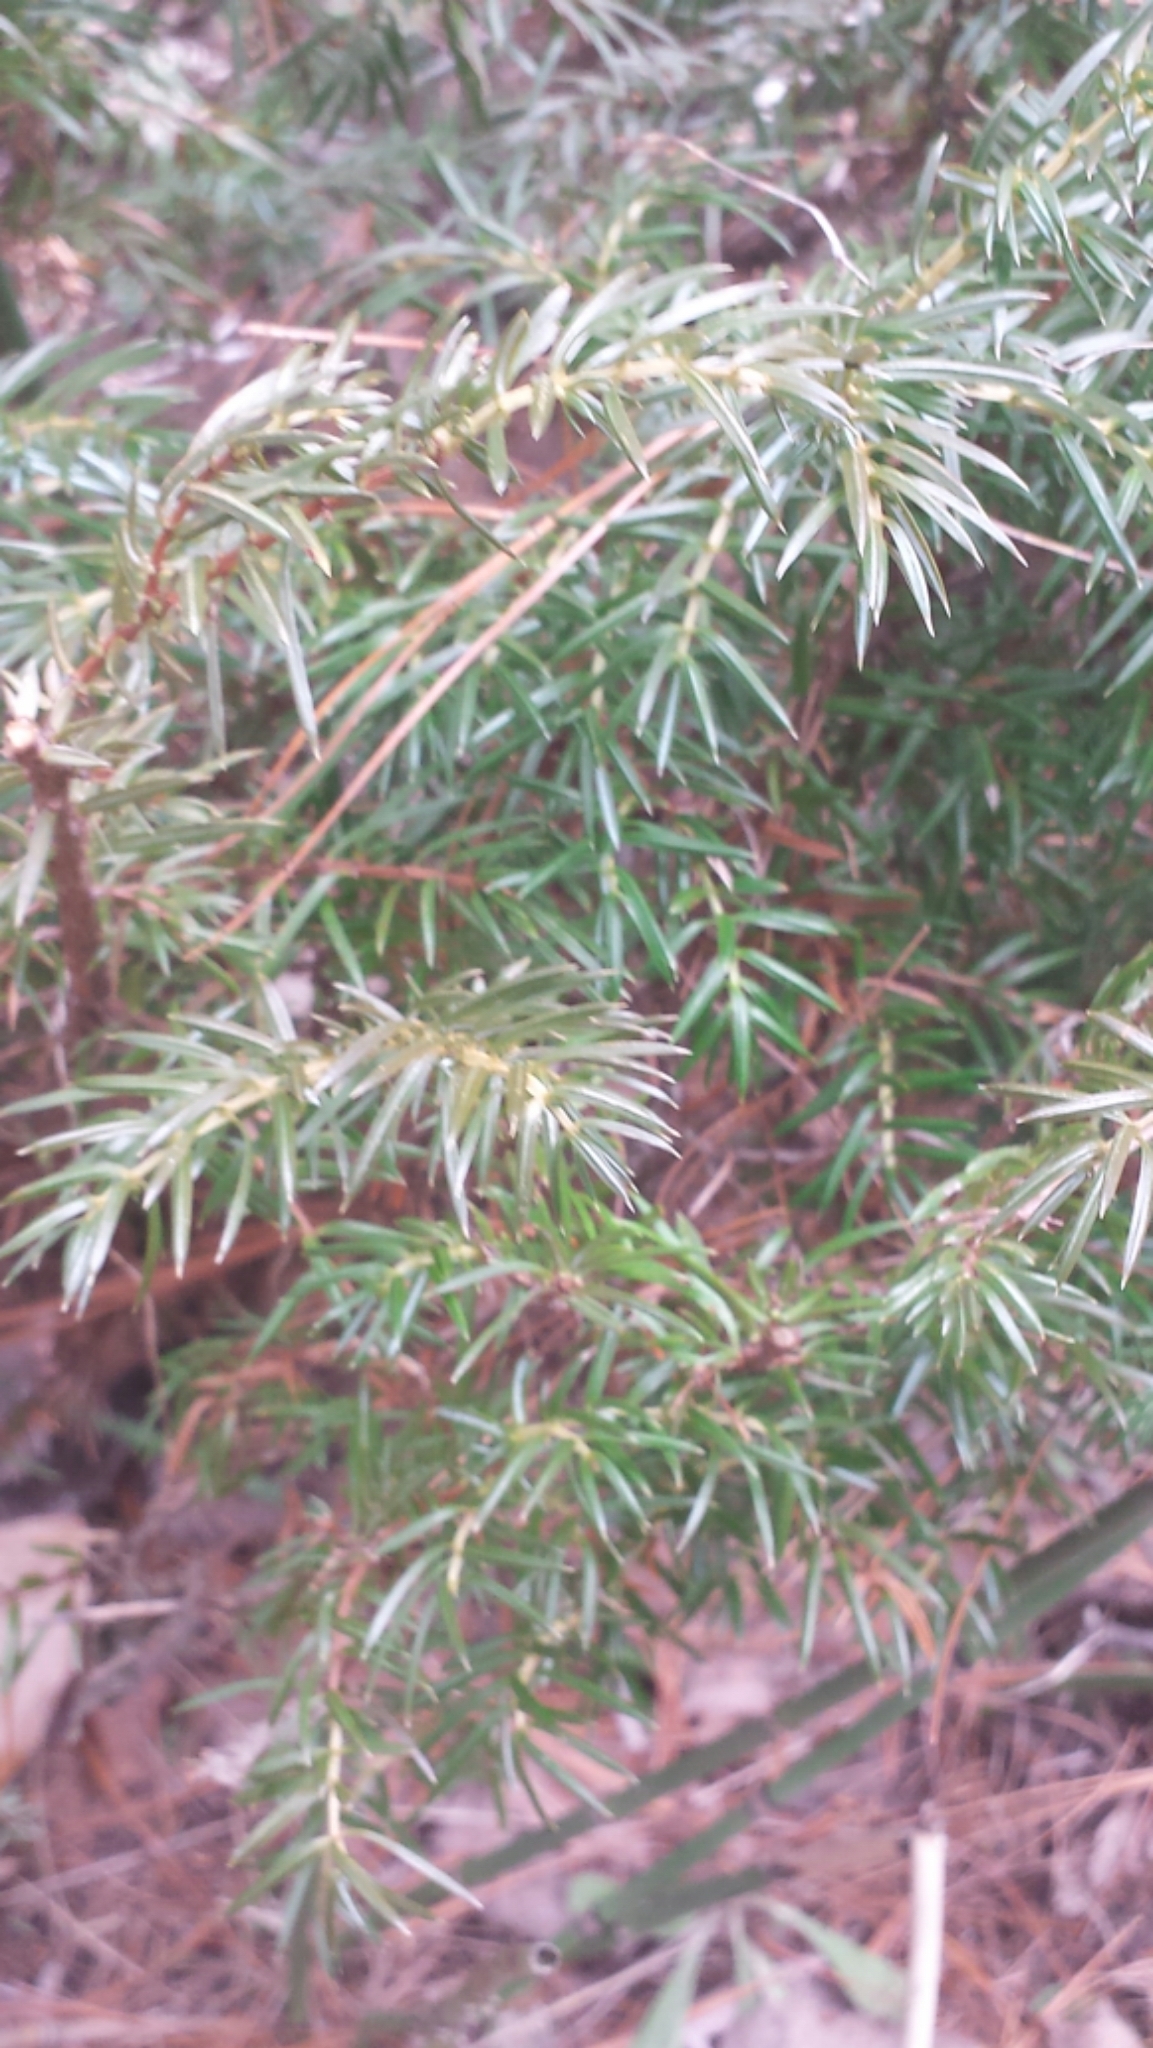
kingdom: Plantae
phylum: Tracheophyta
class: Pinopsida
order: Pinales
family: Cupressaceae
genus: Juniperus
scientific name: Juniperus communis
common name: Common juniper
